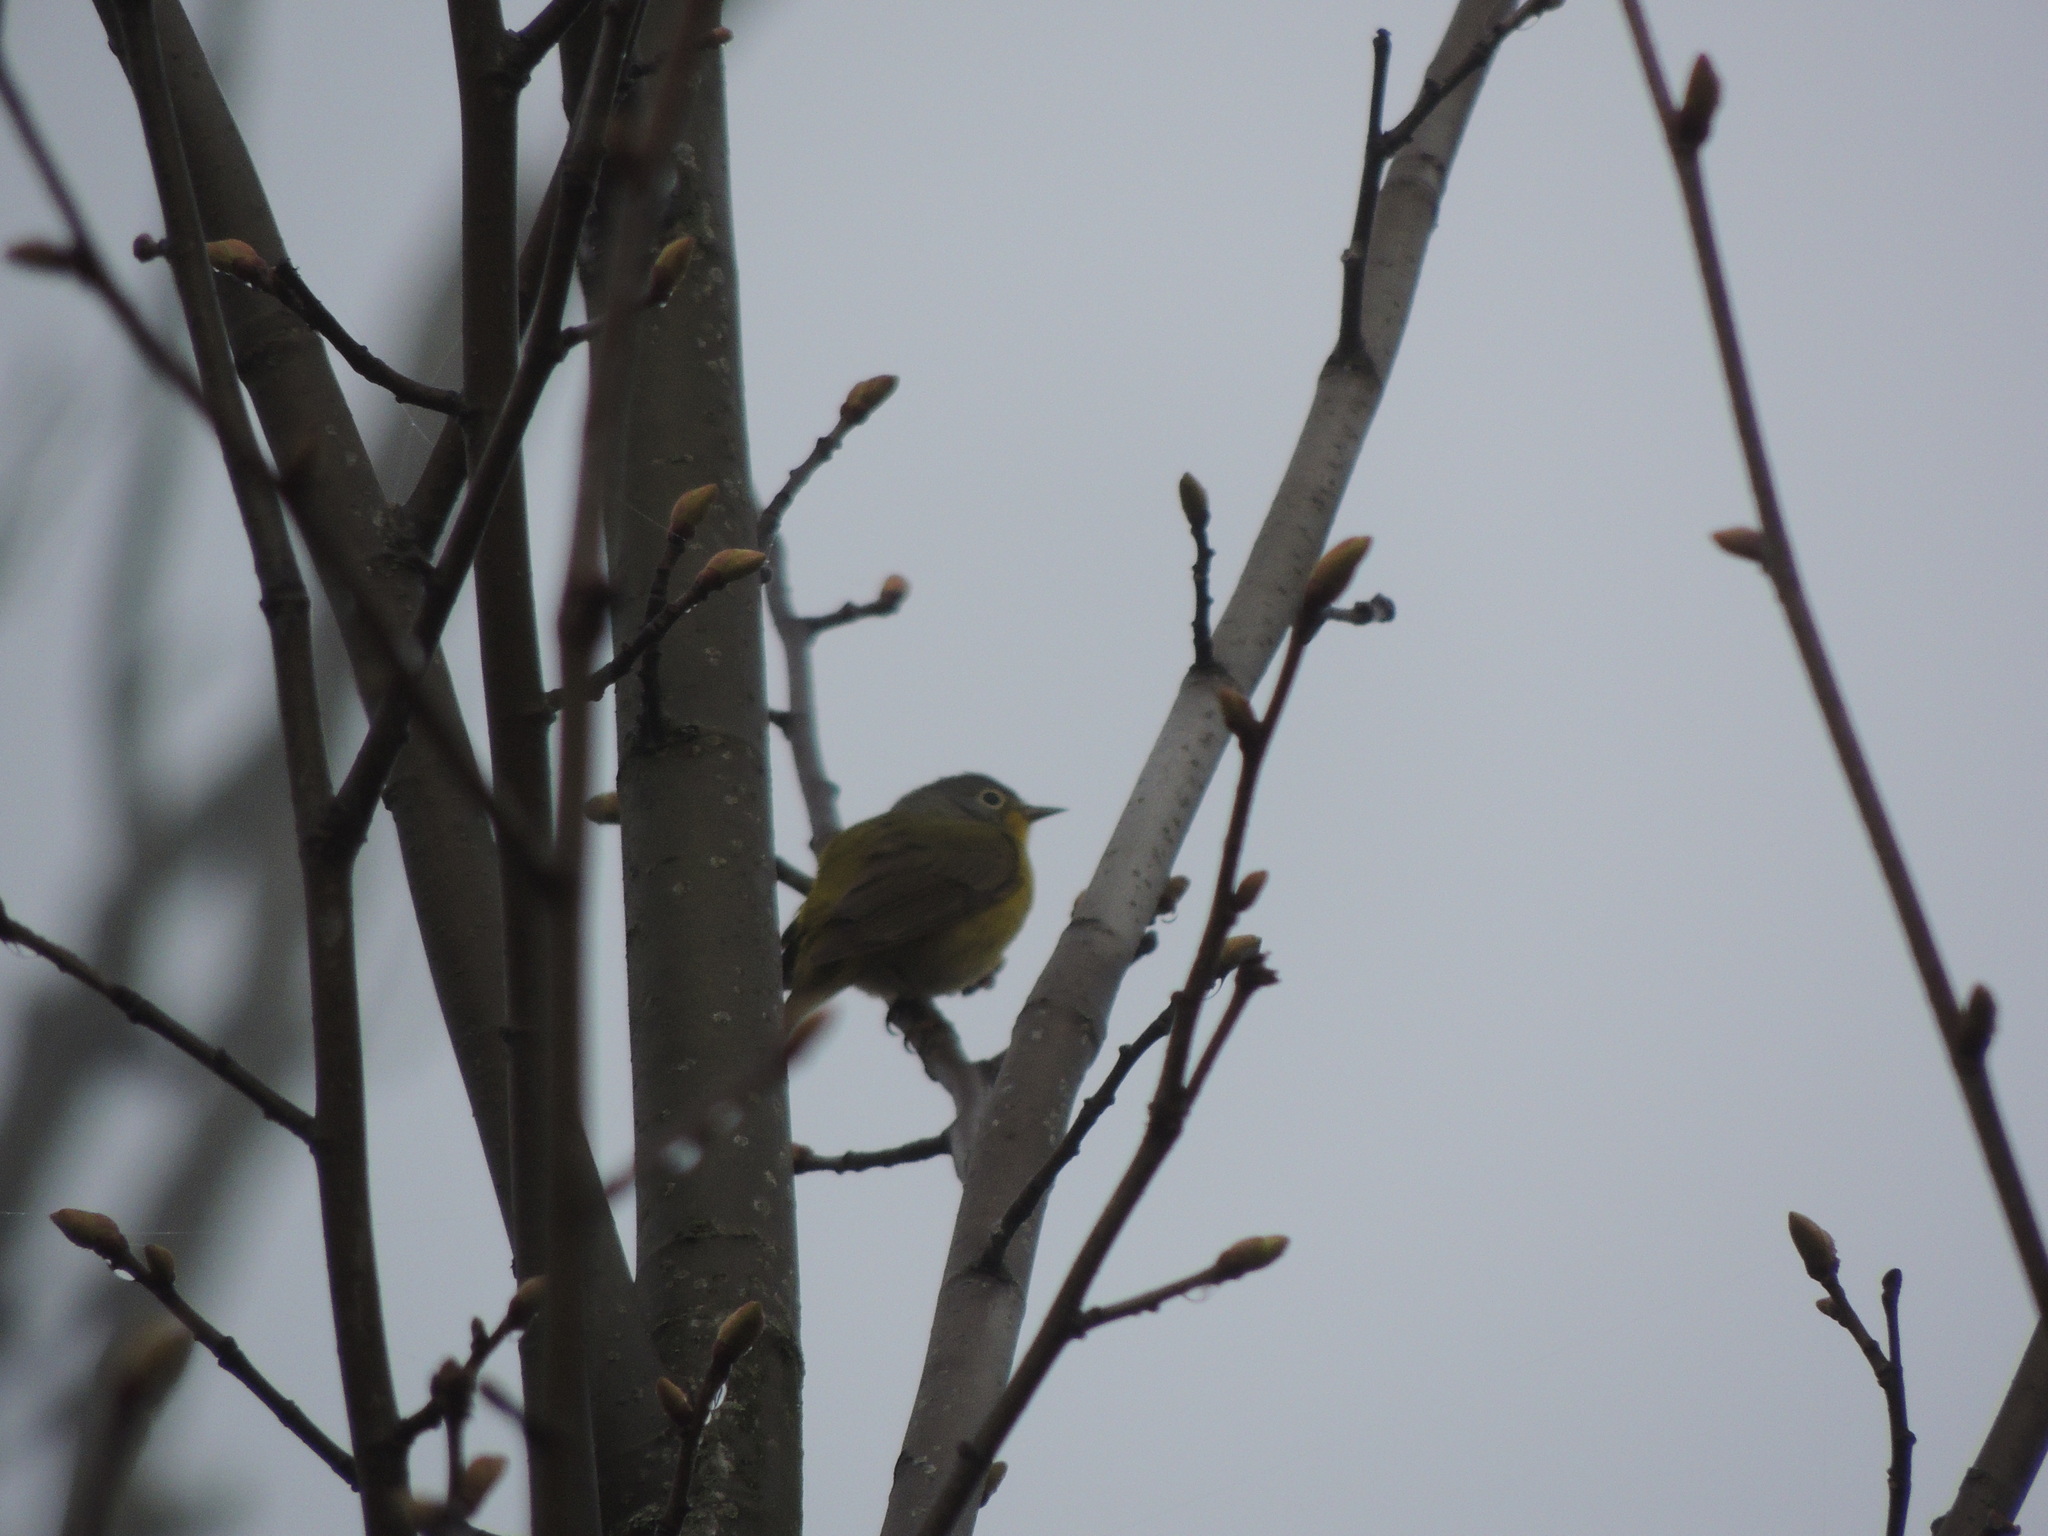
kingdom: Animalia
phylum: Chordata
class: Aves
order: Passeriformes
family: Parulidae
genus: Leiothlypis
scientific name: Leiothlypis ruficapilla
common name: Nashville warbler
